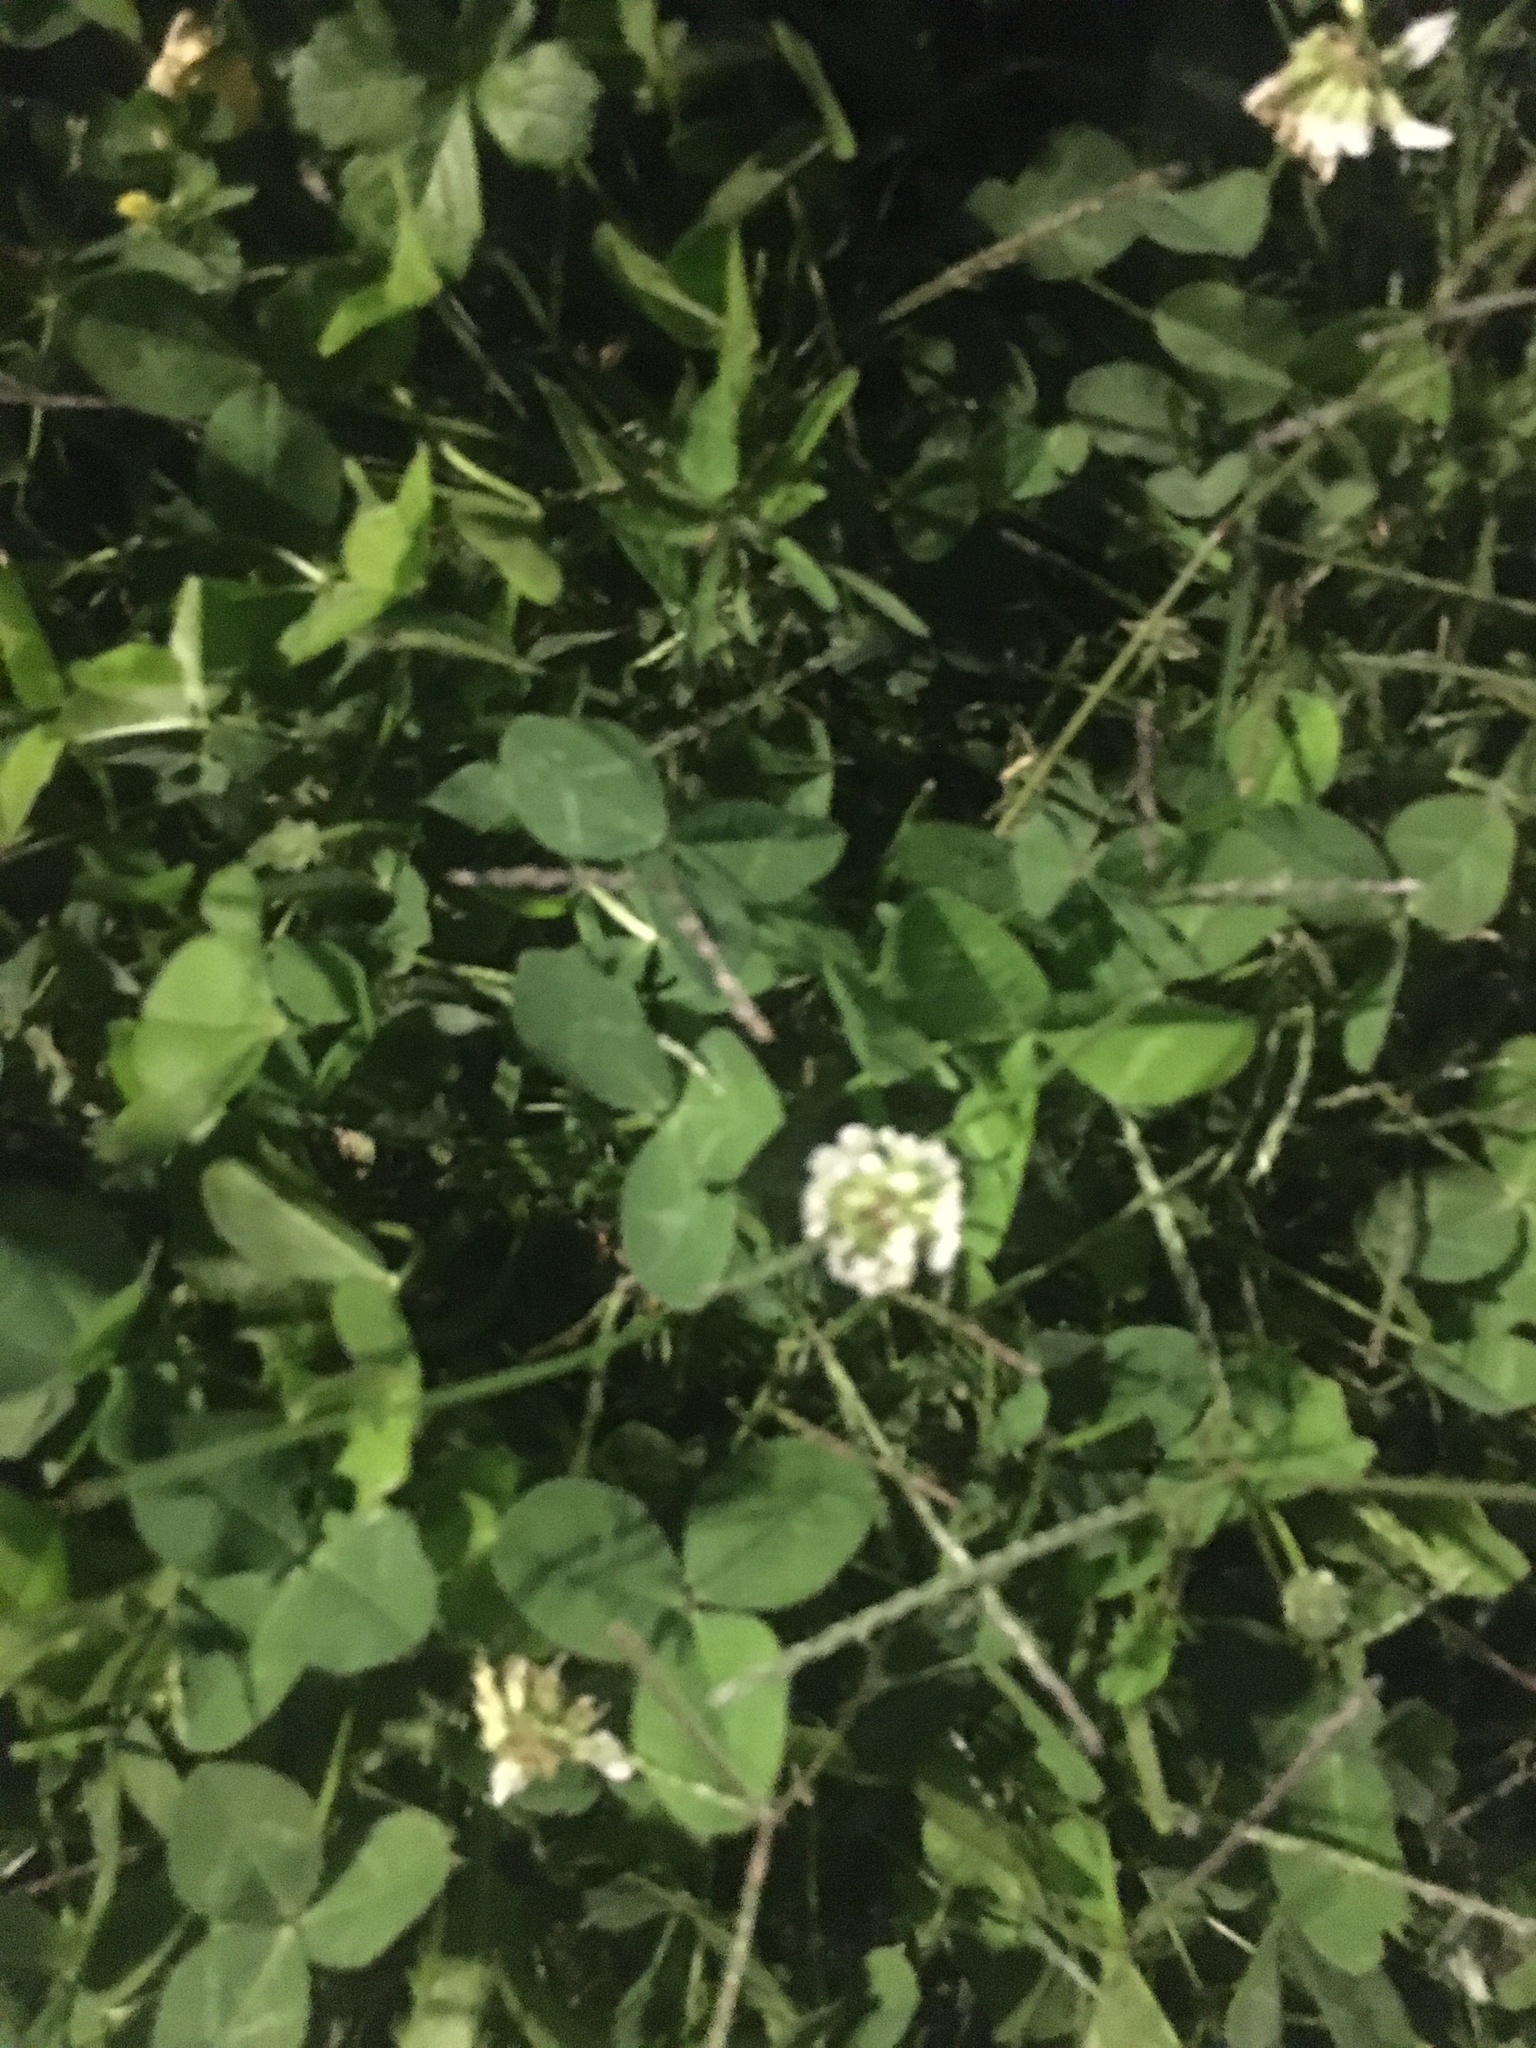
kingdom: Plantae
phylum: Tracheophyta
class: Magnoliopsida
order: Fabales
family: Fabaceae
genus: Trifolium
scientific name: Trifolium repens
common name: White clover
